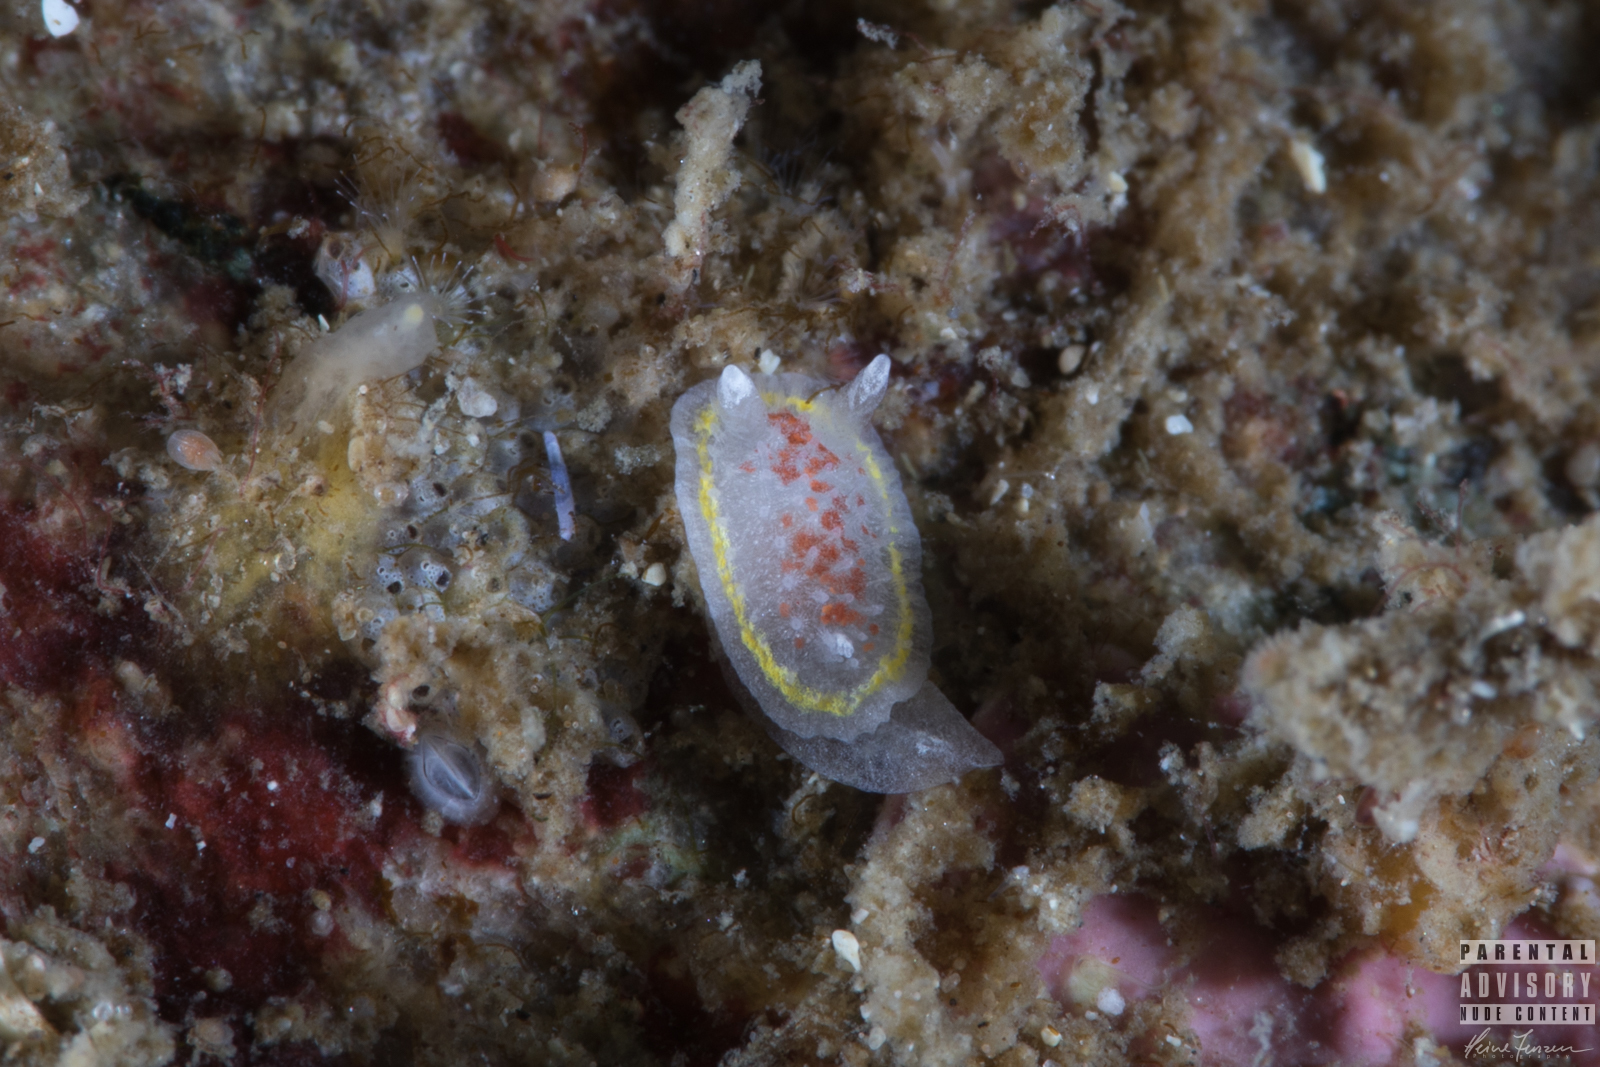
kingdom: Animalia
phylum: Mollusca
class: Gastropoda
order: Nudibranchia
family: Calycidorididae
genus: Diaphorodoris
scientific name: Diaphorodoris luteocincta
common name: Fried egg nudibranch
